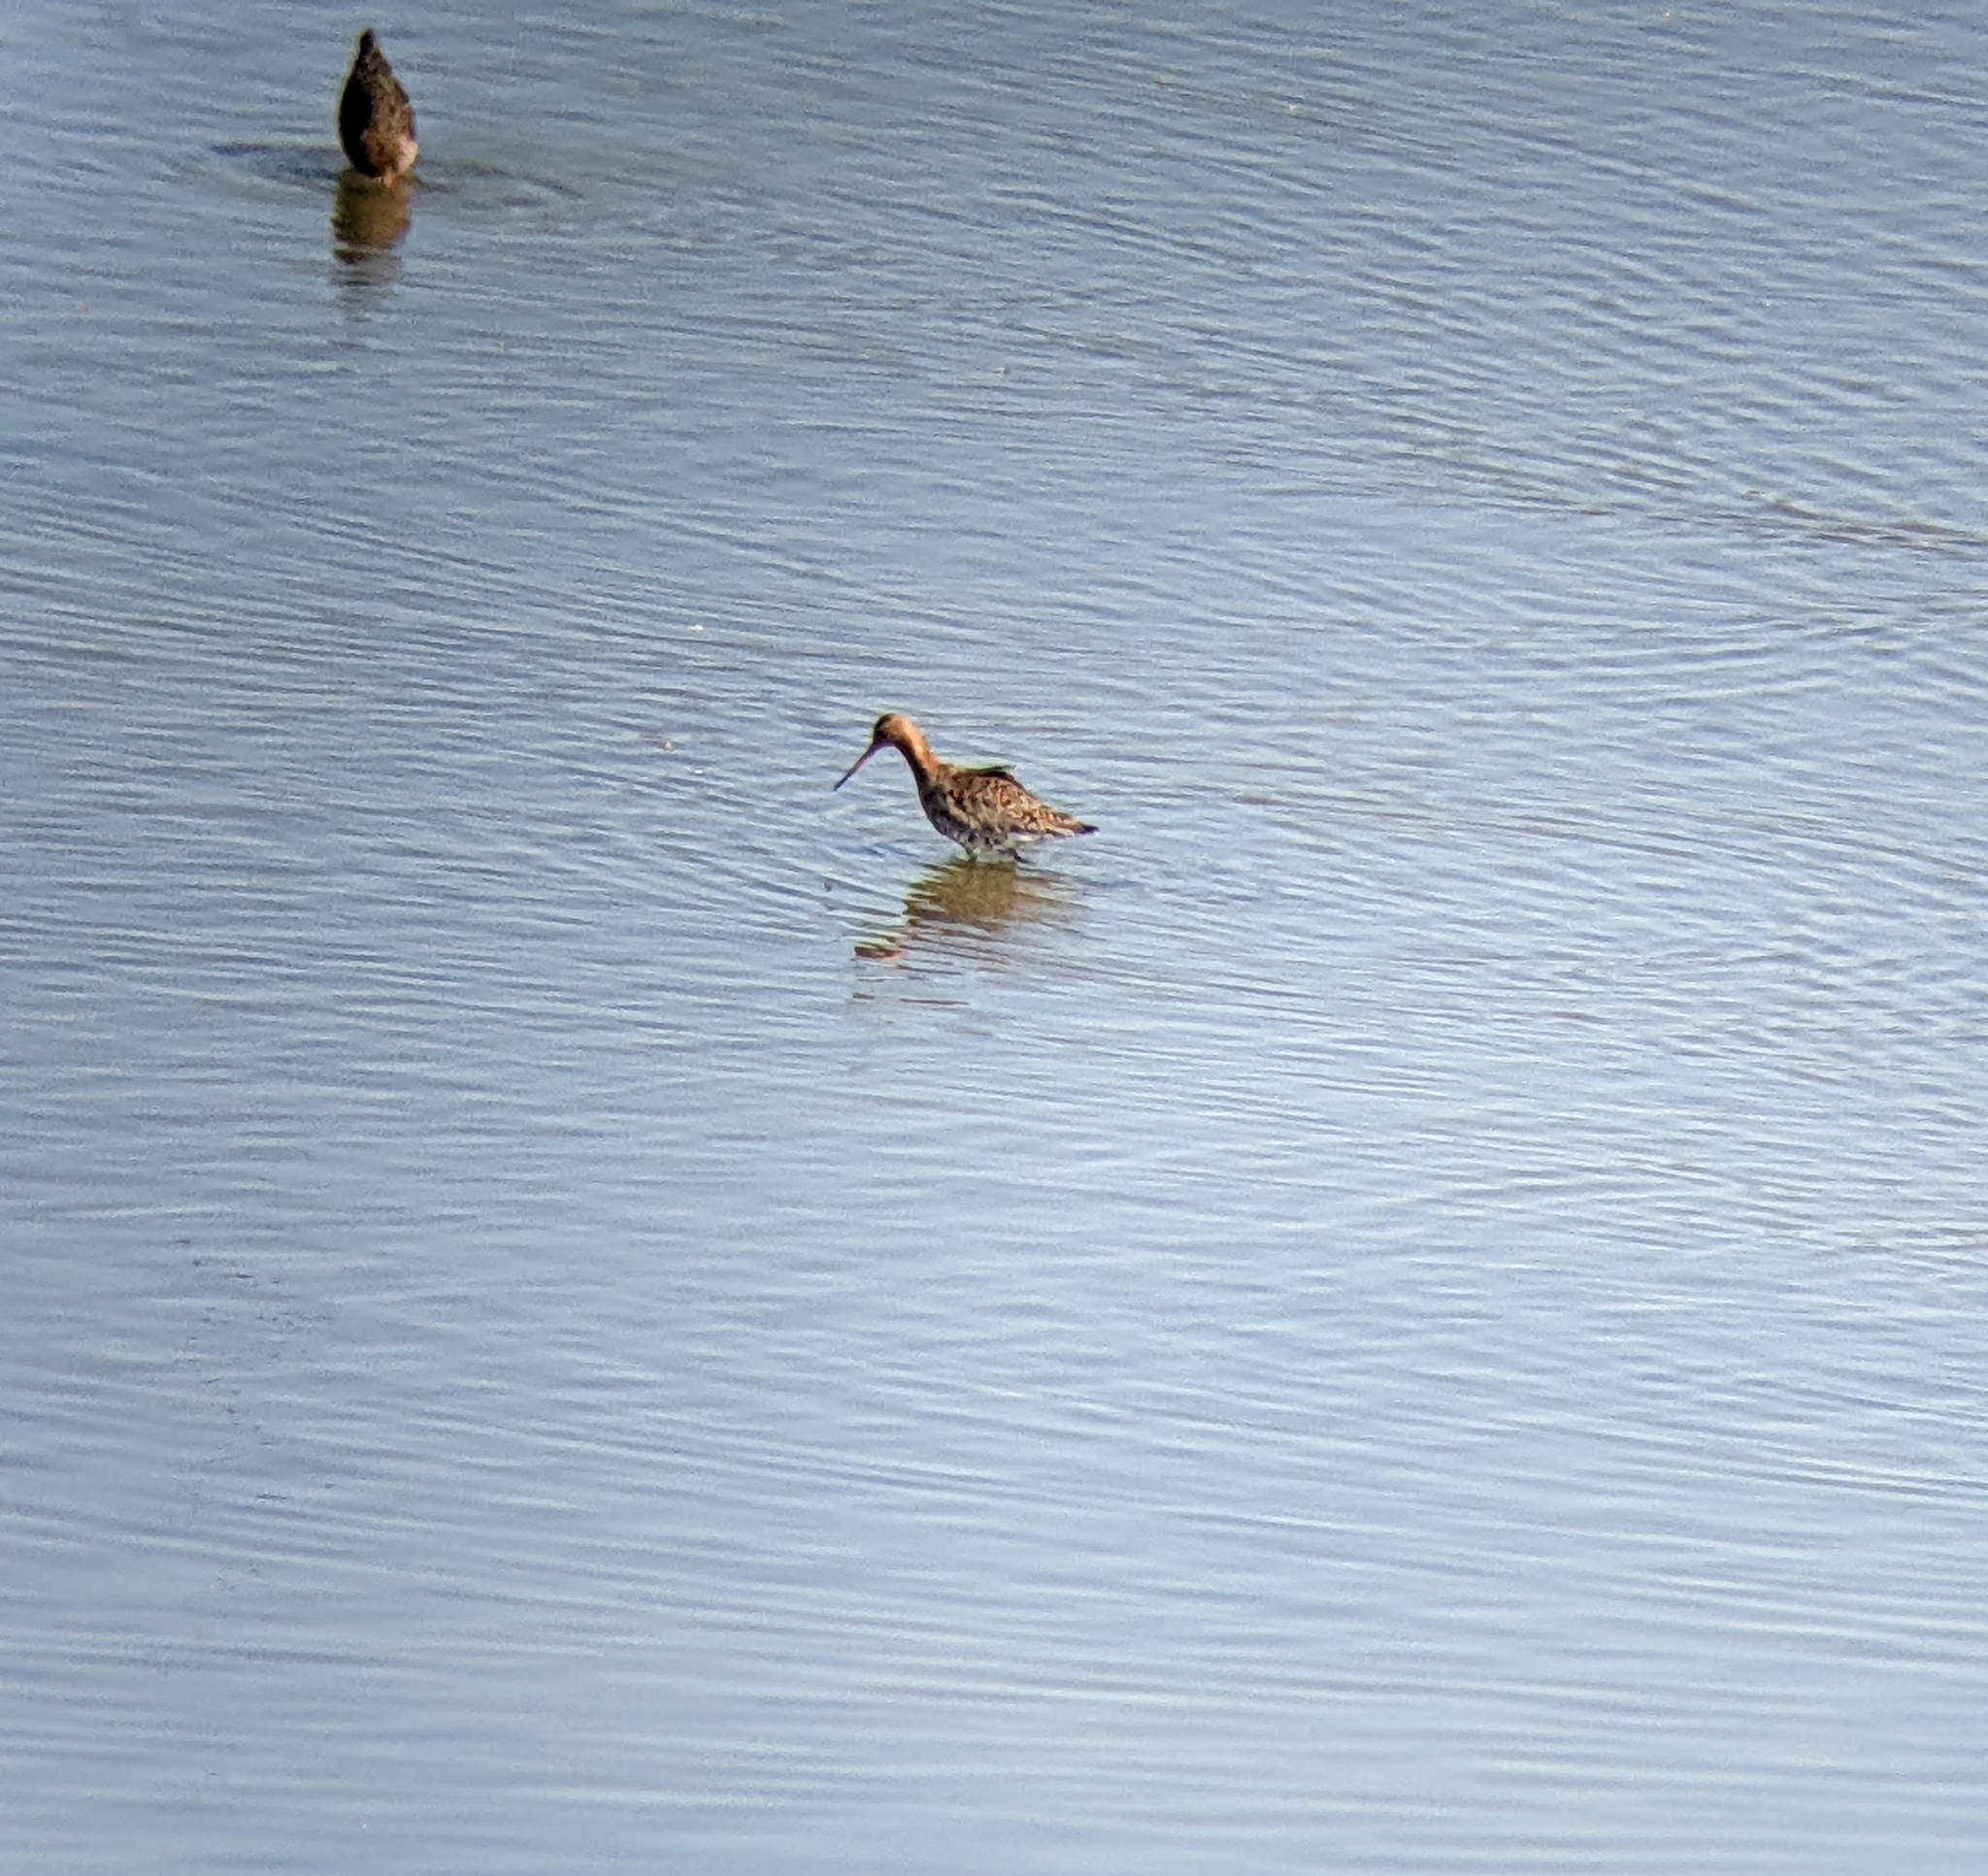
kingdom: Animalia
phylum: Chordata
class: Aves
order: Charadriiformes
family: Scolopacidae
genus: Limosa
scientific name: Limosa limosa
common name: Black-tailed godwit
